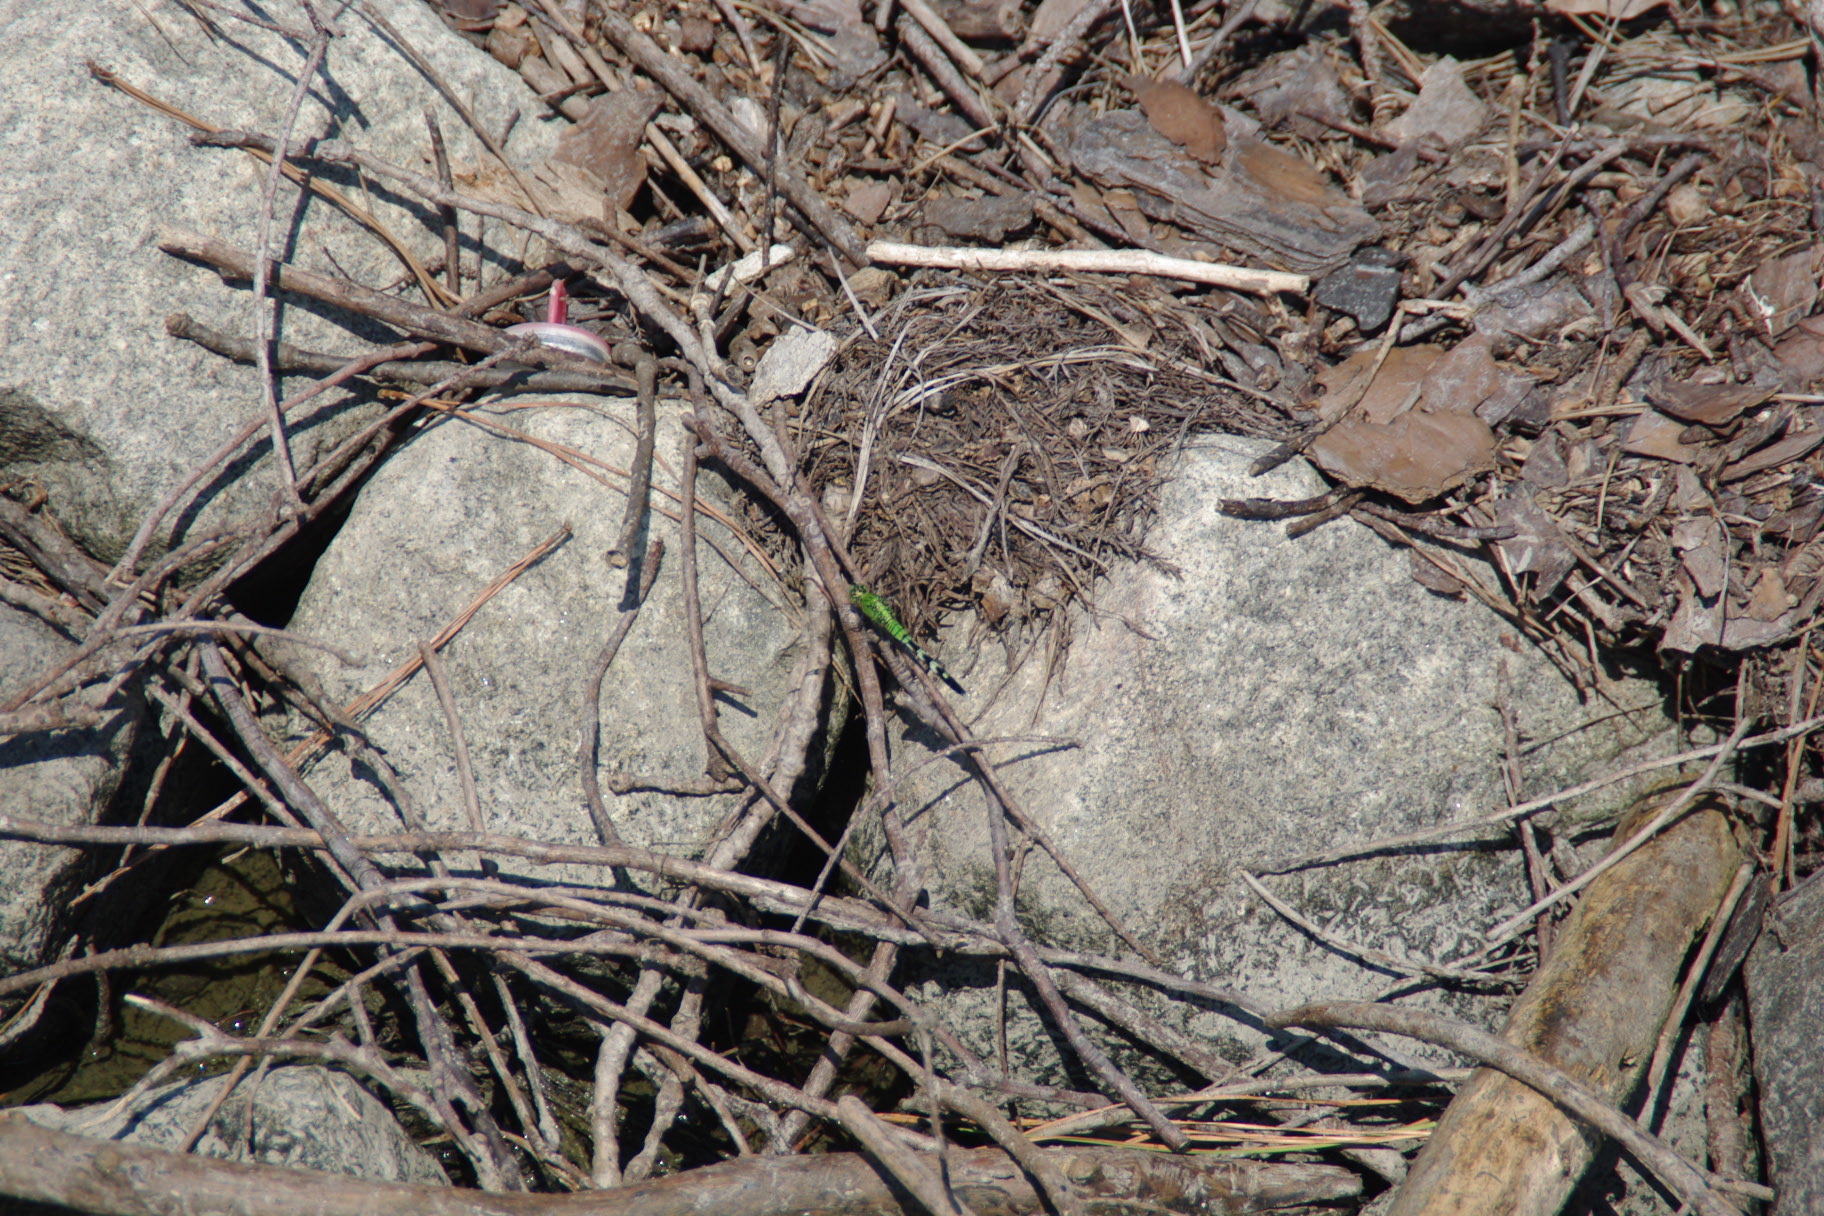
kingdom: Animalia
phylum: Arthropoda
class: Insecta
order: Odonata
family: Libellulidae
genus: Erythemis
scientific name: Erythemis simplicicollis
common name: Eastern pondhawk
